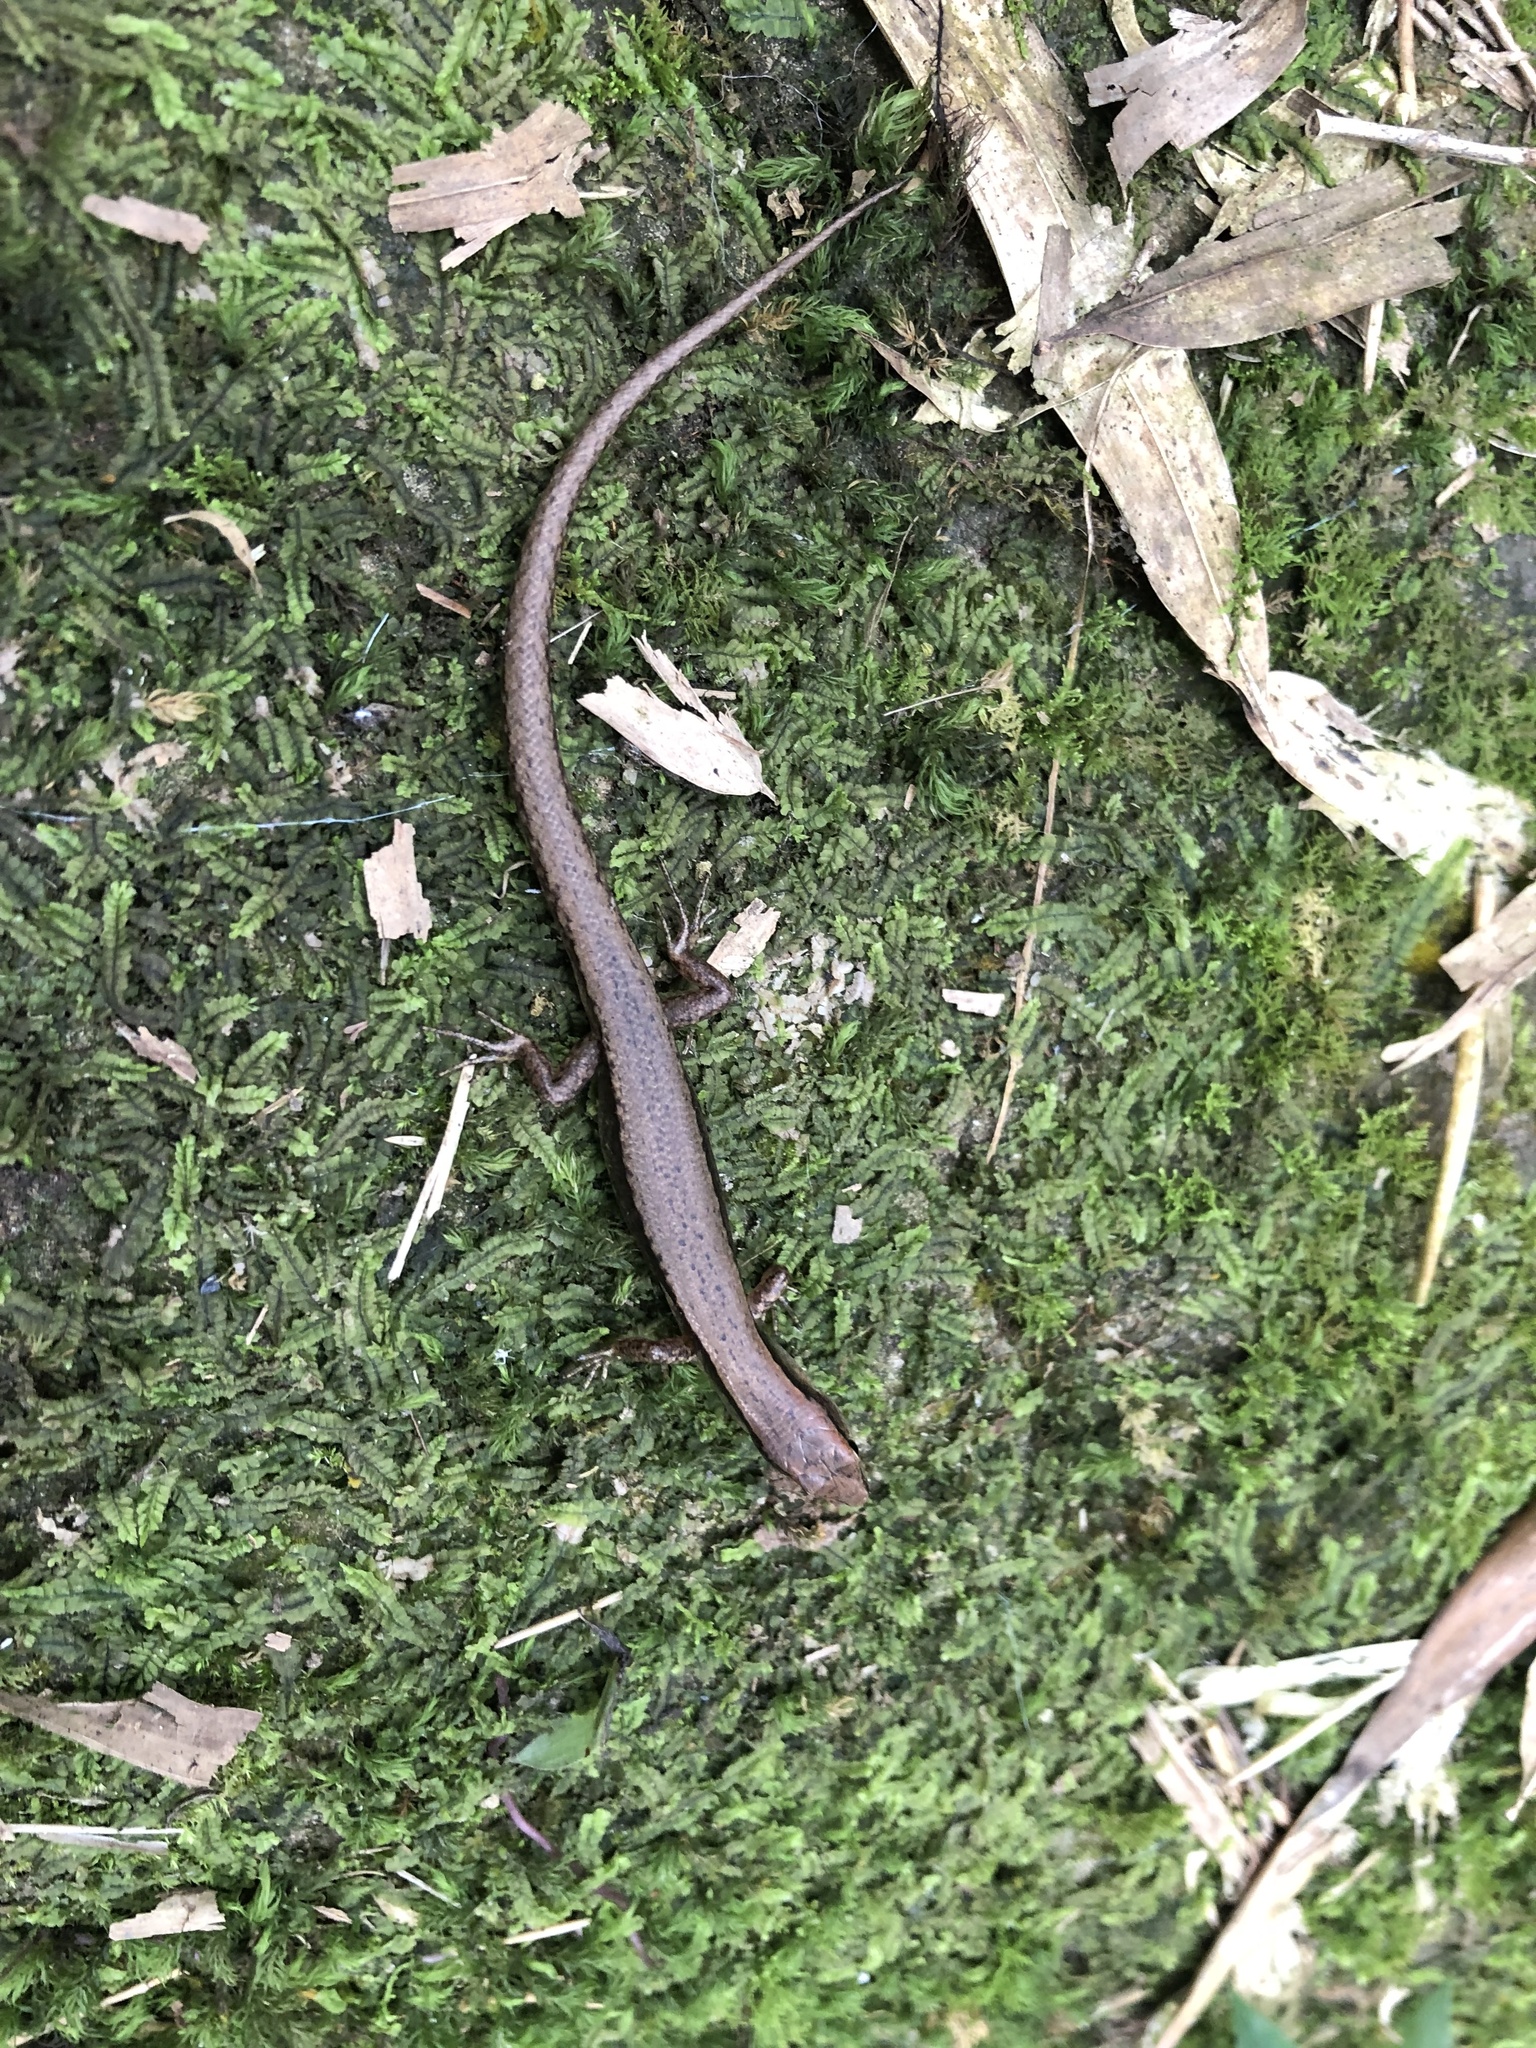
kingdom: Animalia
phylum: Chordata
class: Squamata
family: Scincidae
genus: Scincella
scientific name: Scincella formosensis
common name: Van denburgh's ground skink
